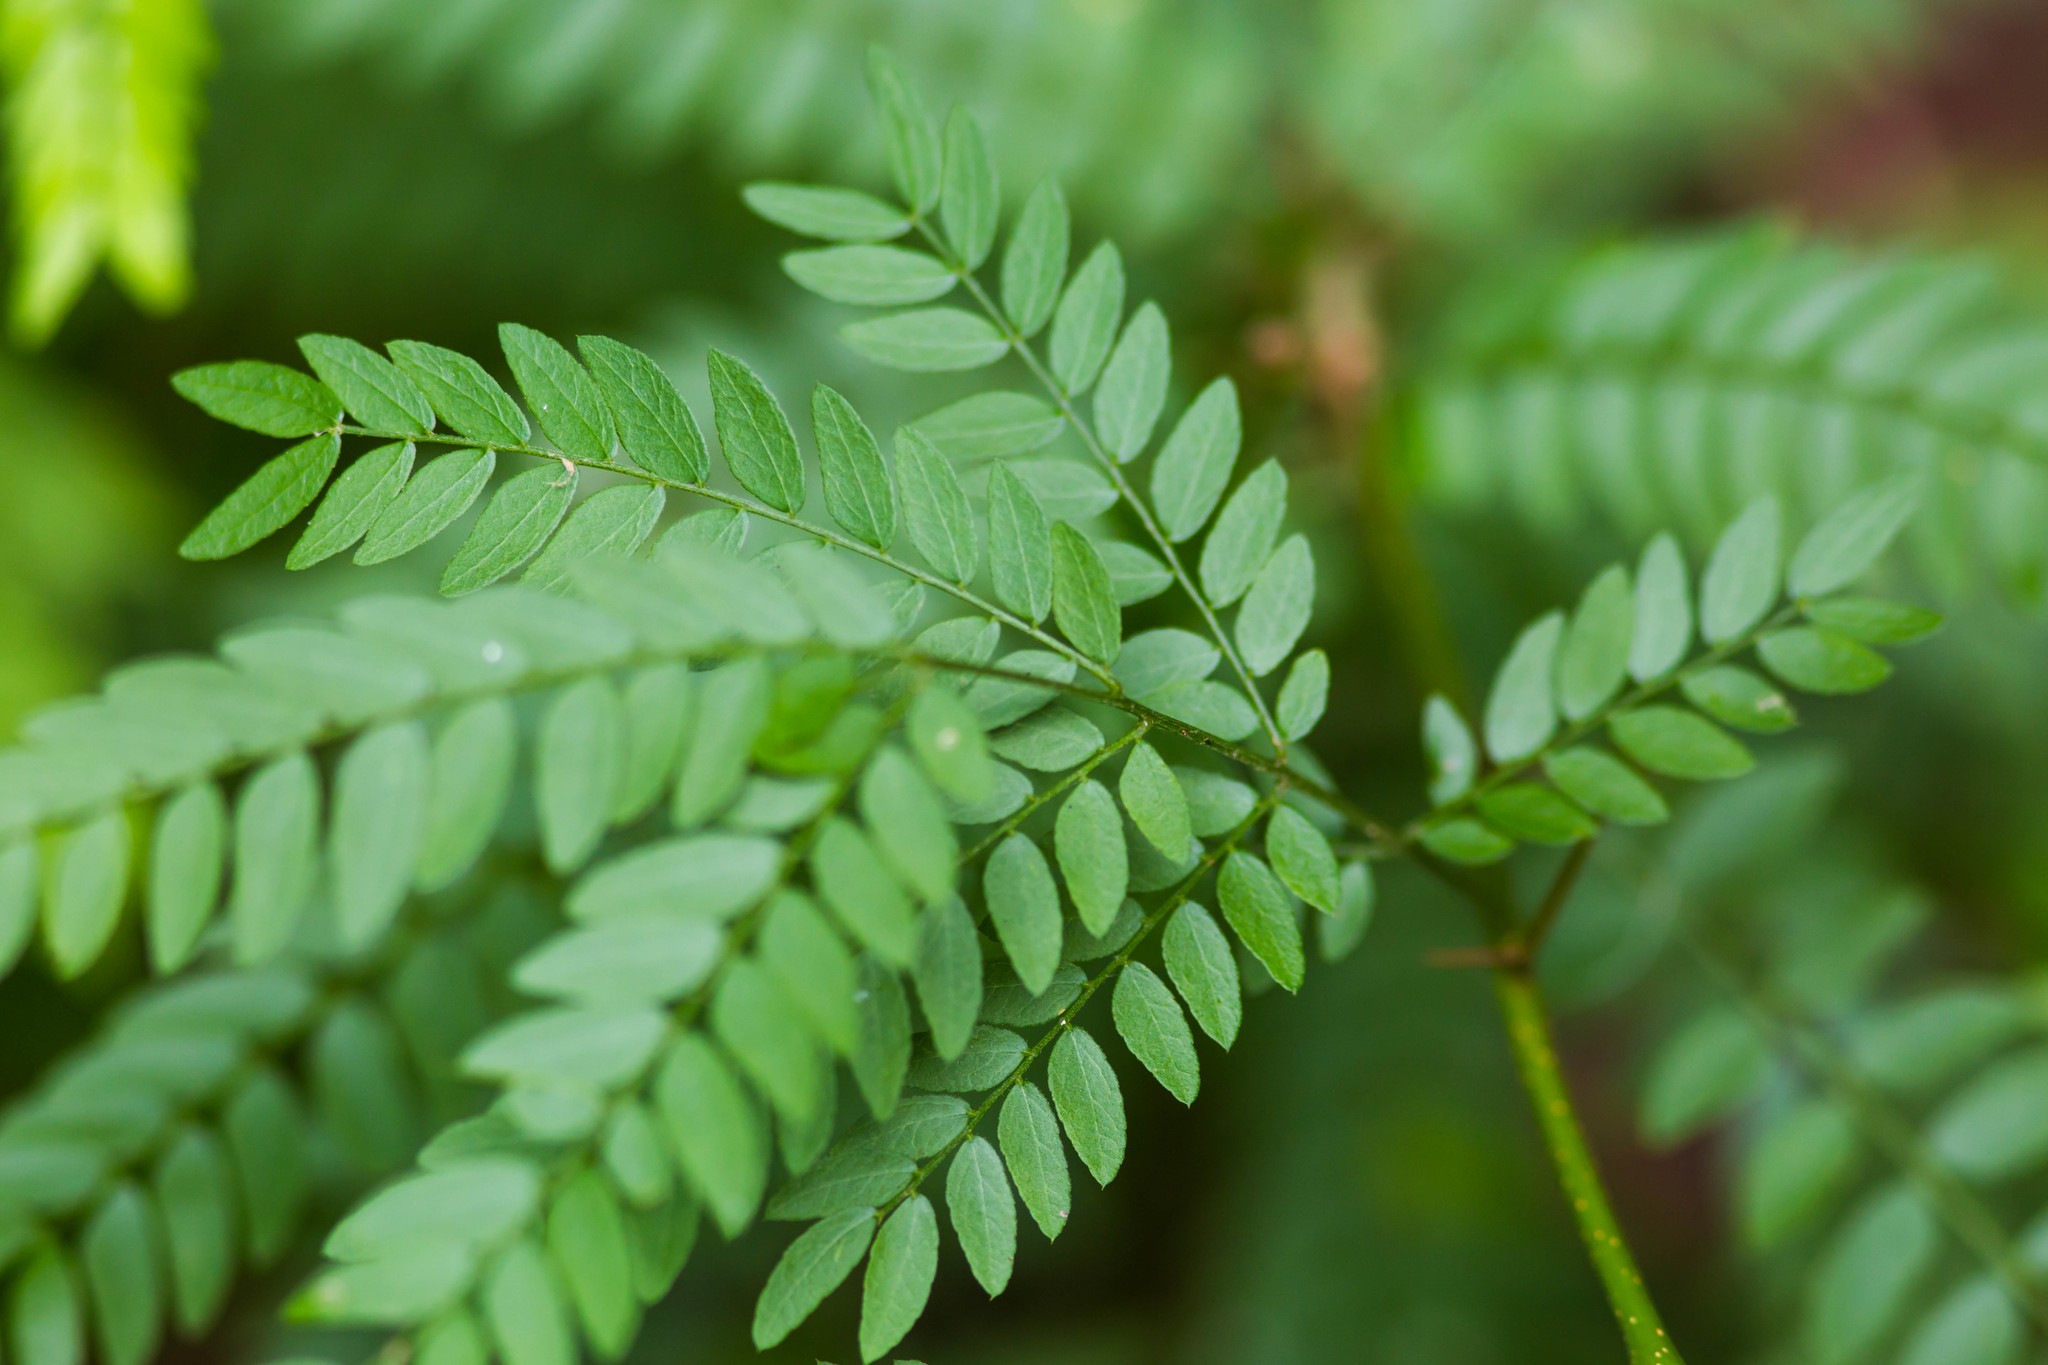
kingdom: Plantae
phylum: Tracheophyta
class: Magnoliopsida
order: Fabales
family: Fabaceae
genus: Gleditsia
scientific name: Gleditsia triacanthos
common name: Common honeylocust
